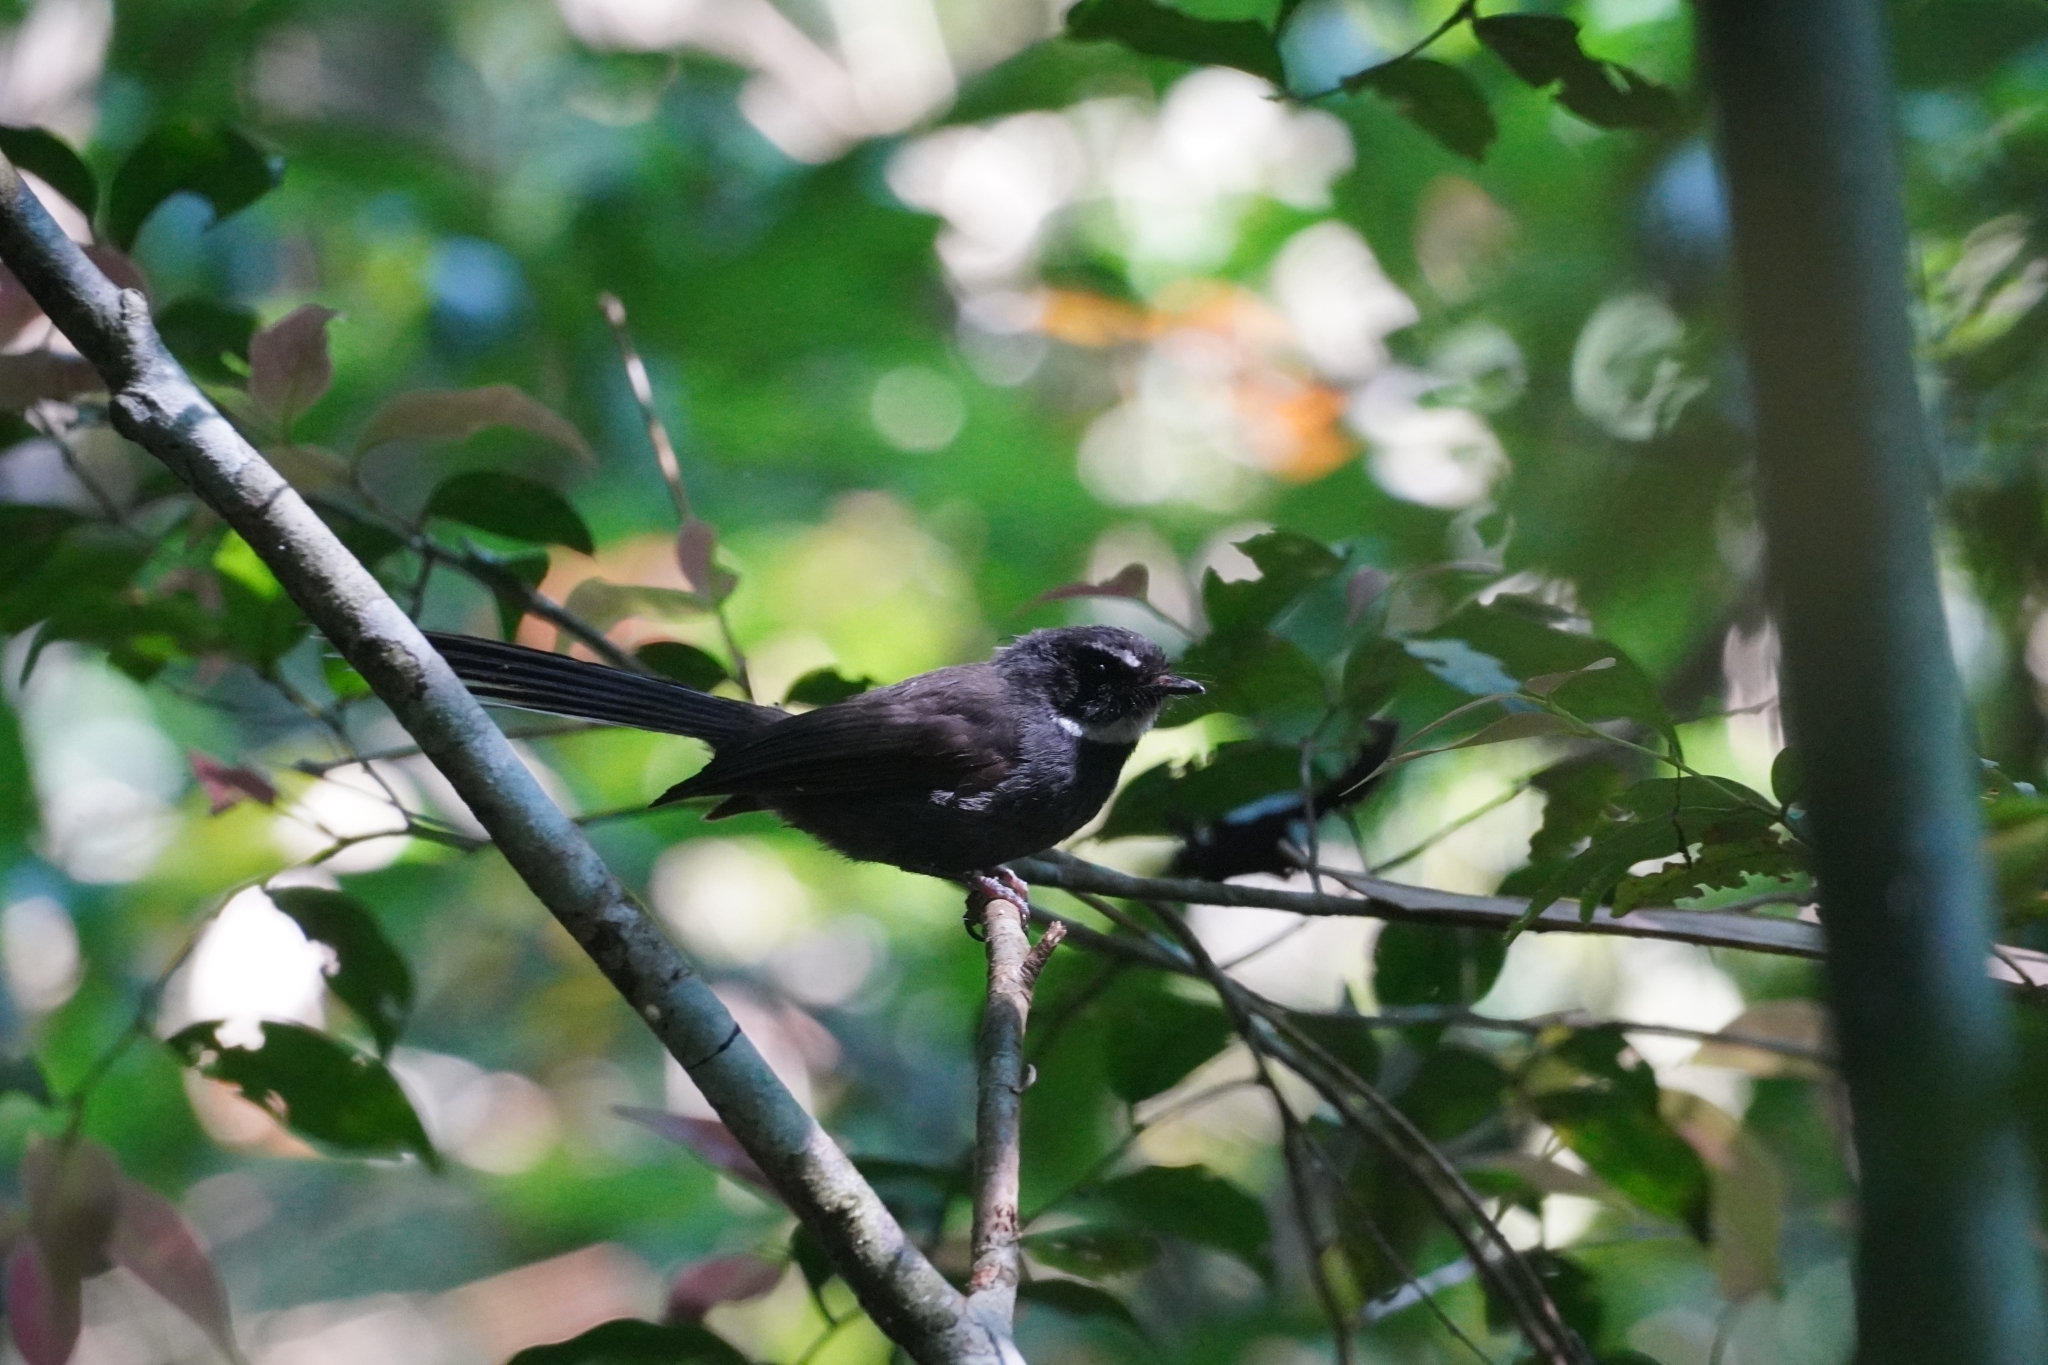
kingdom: Animalia
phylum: Chordata
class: Aves
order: Passeriformes
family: Rhipiduridae
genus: Rhipidura
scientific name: Rhipidura albicollis
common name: White-throated fantail
